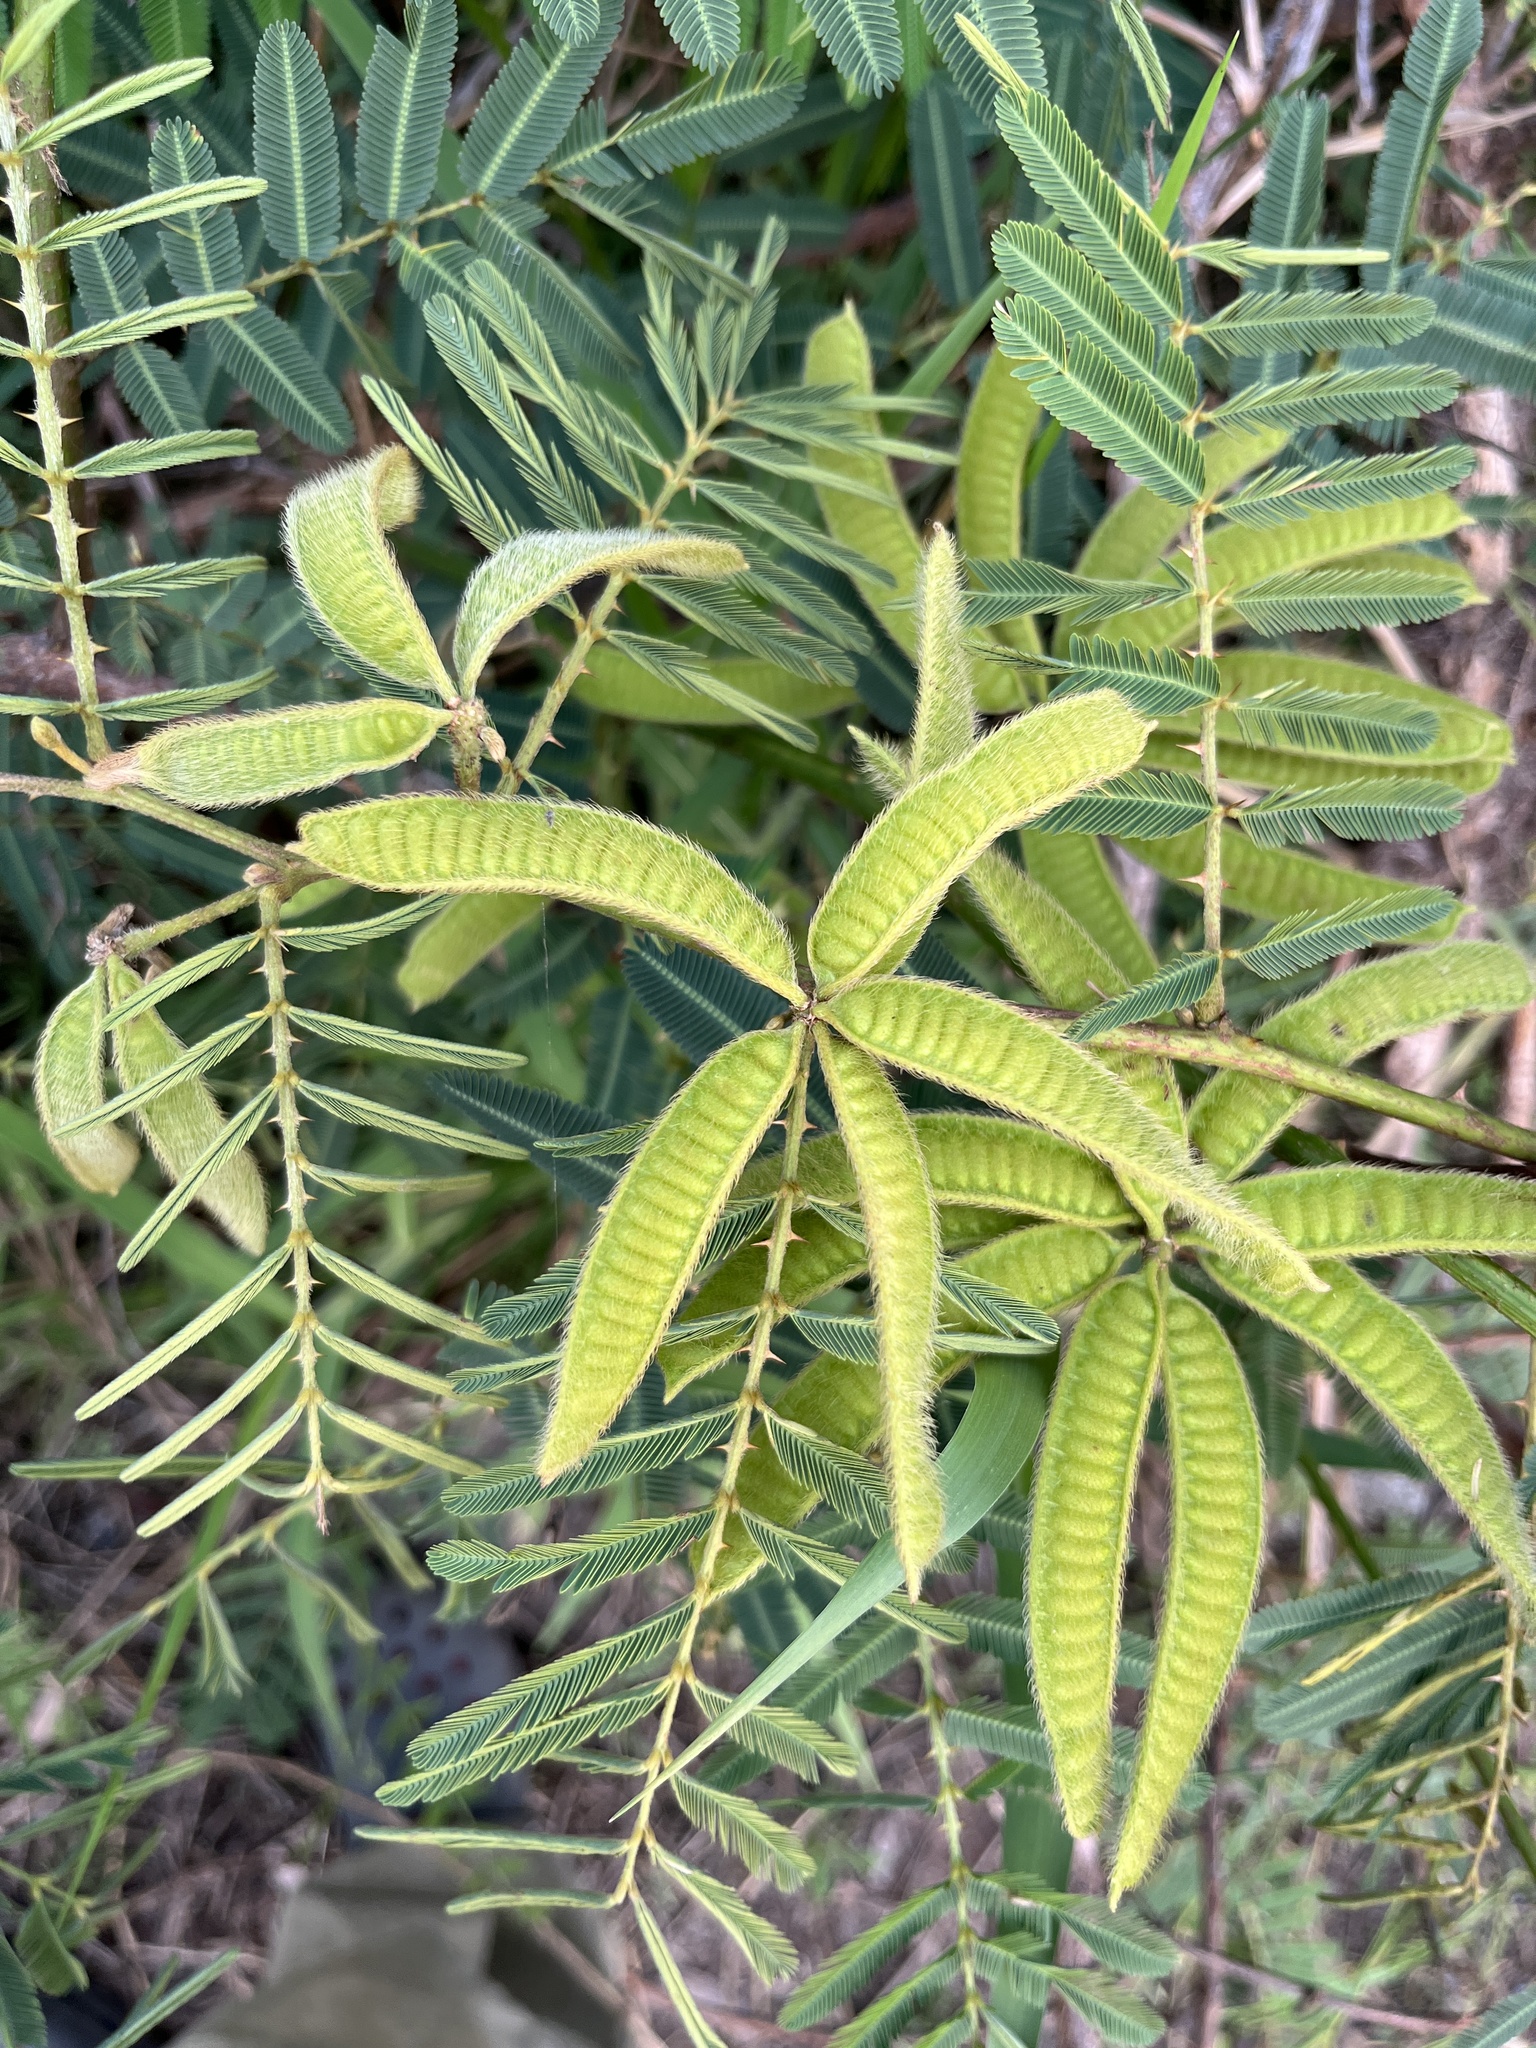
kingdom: Plantae
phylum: Tracheophyta
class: Magnoliopsida
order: Fabales
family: Fabaceae
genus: Mimosa
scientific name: Mimosa pigra
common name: Black mimosa
